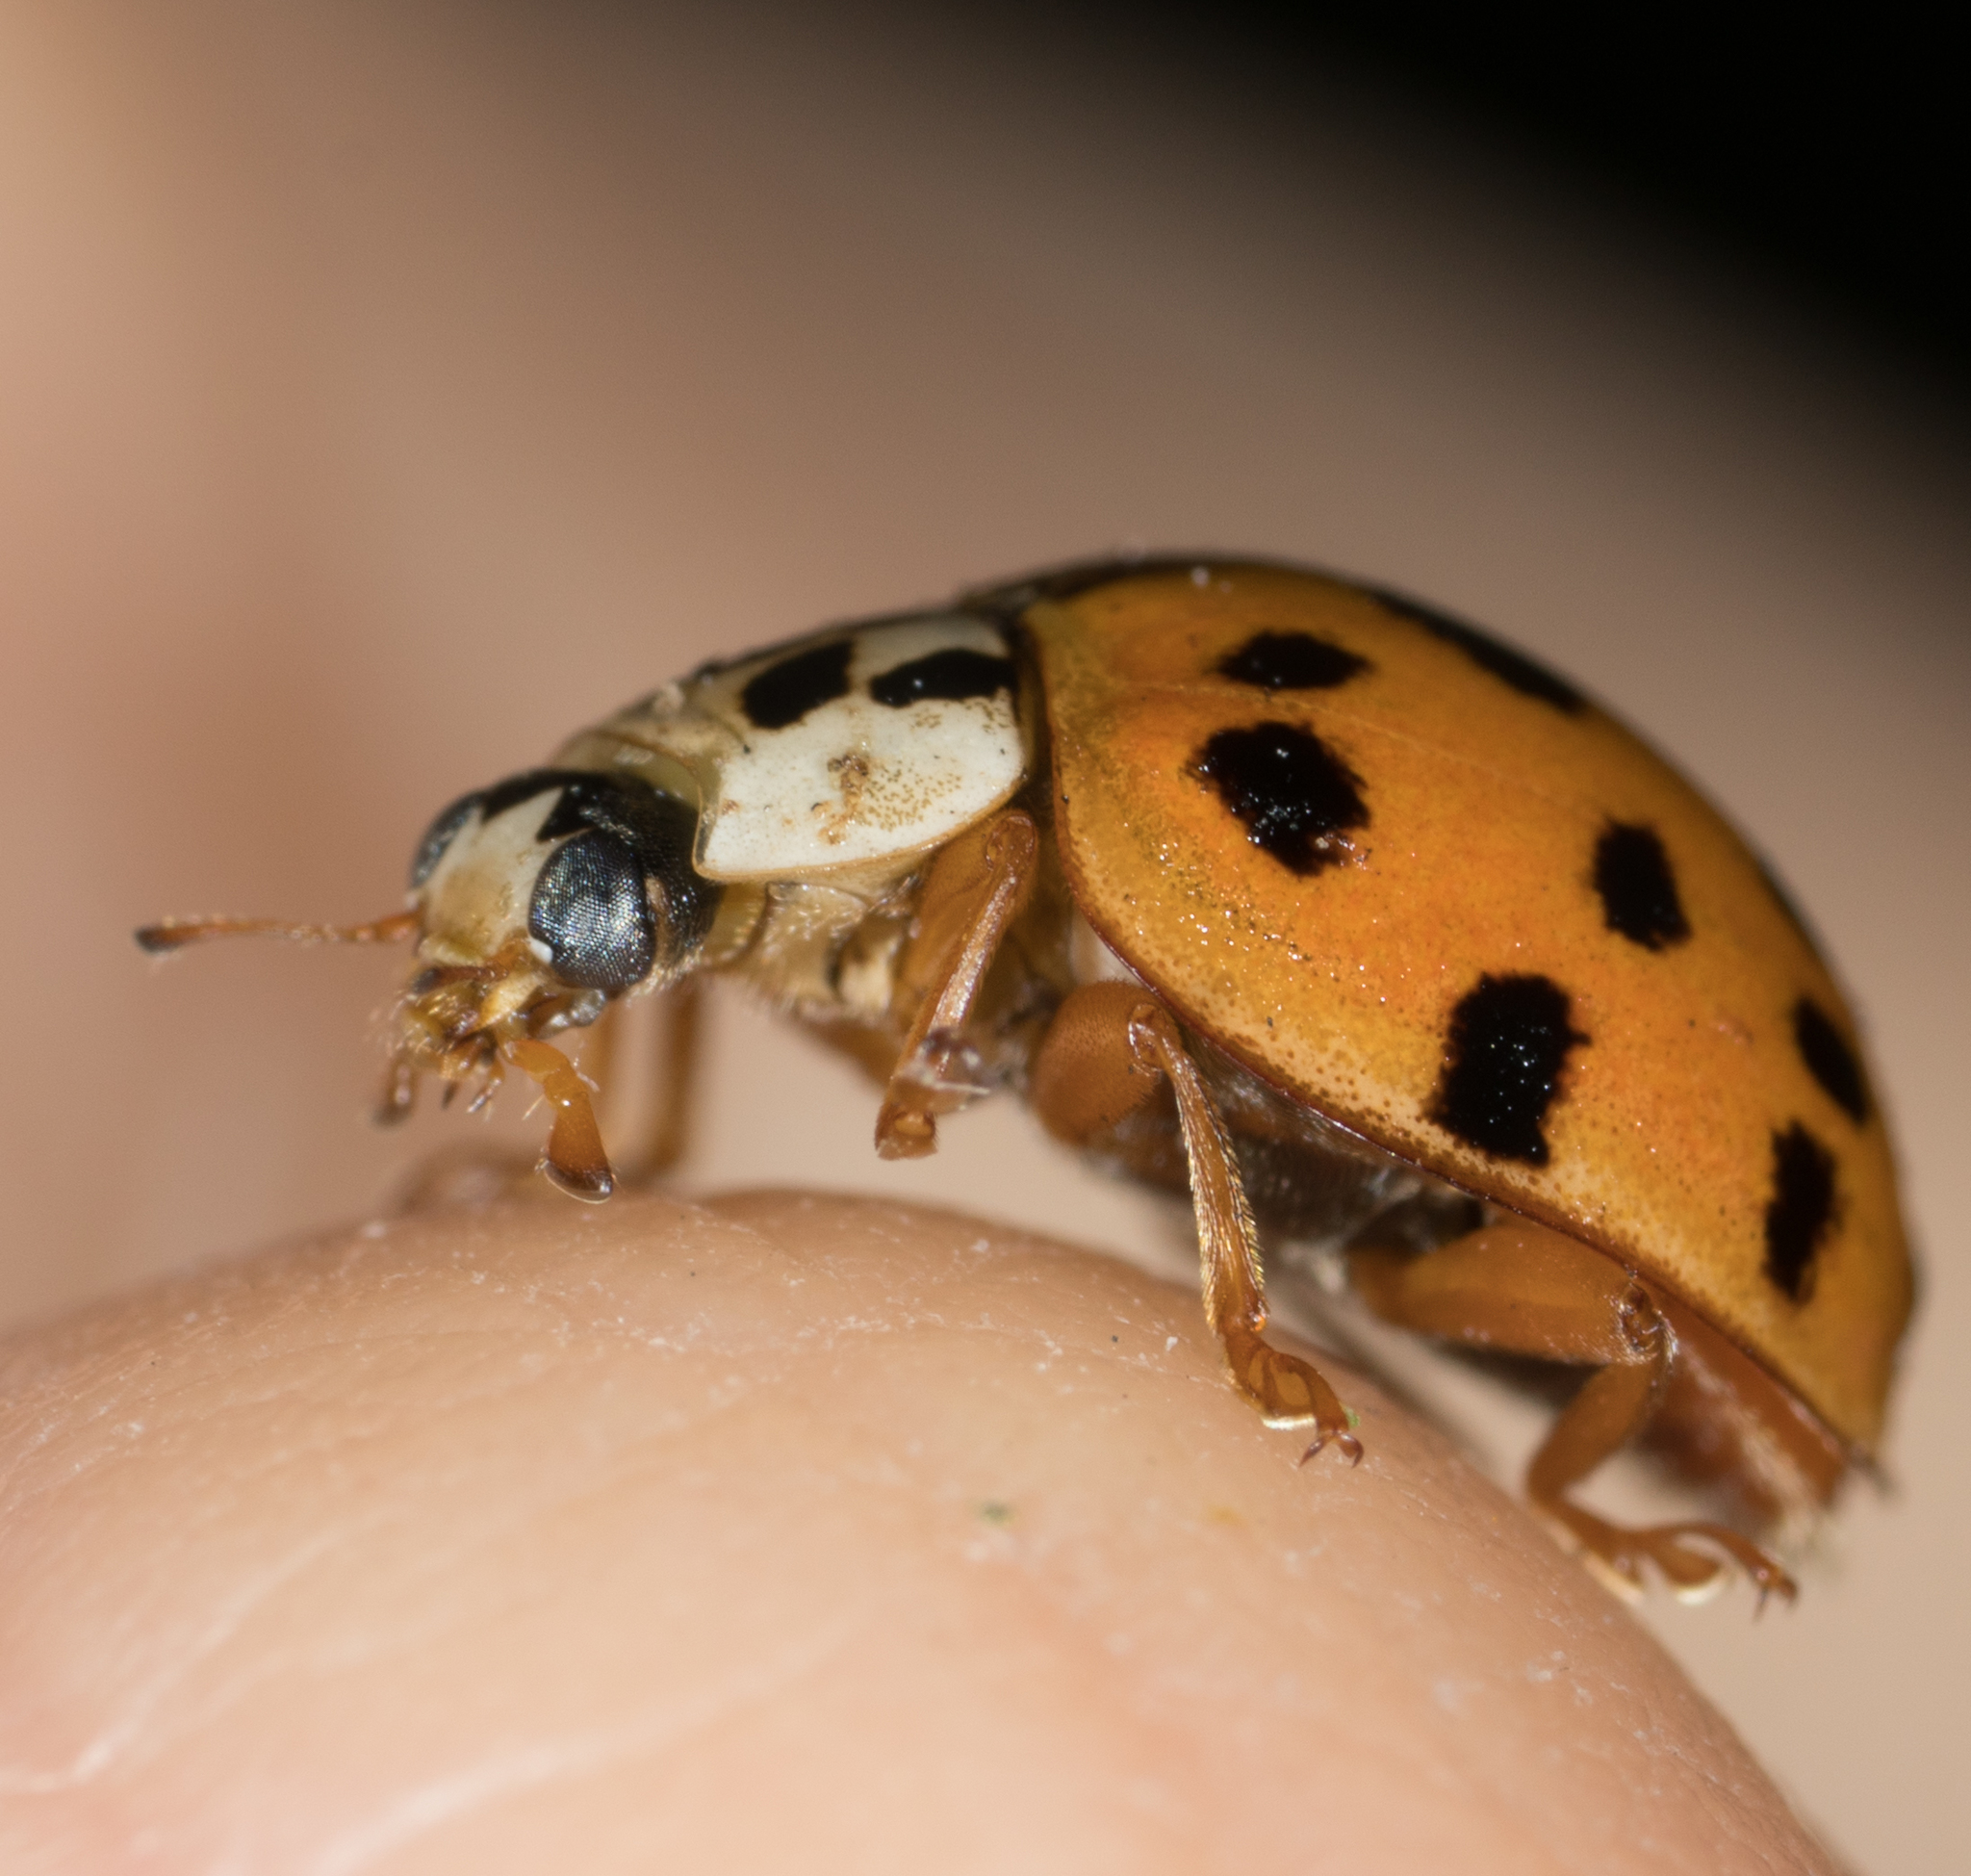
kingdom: Animalia
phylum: Arthropoda
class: Insecta
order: Coleoptera
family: Coccinellidae
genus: Harmonia
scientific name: Harmonia axyridis
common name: Harlequin ladybird
